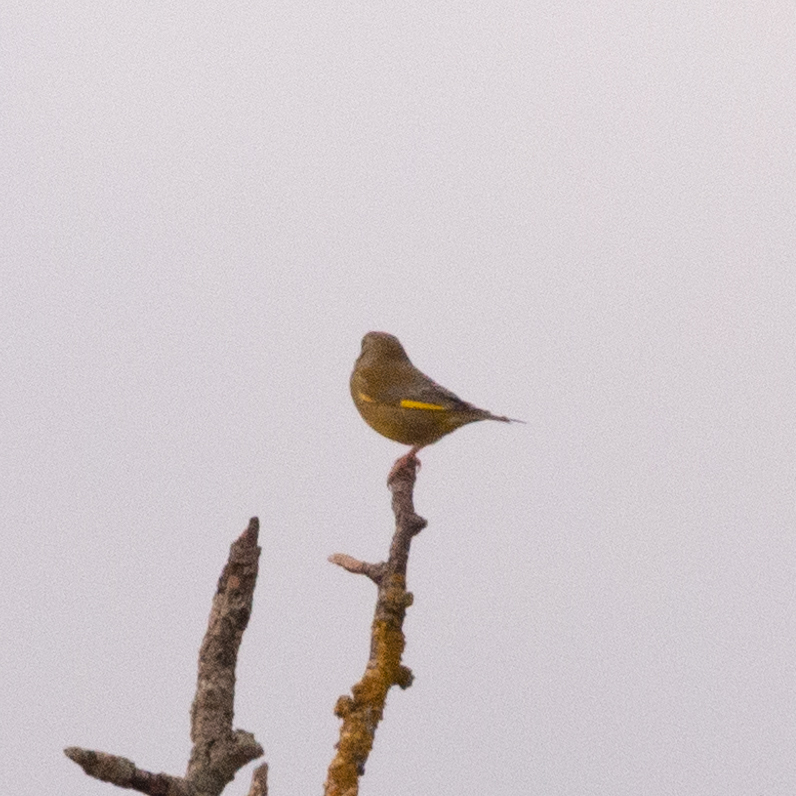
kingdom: Plantae
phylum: Tracheophyta
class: Liliopsida
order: Poales
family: Poaceae
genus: Chloris
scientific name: Chloris chloris
